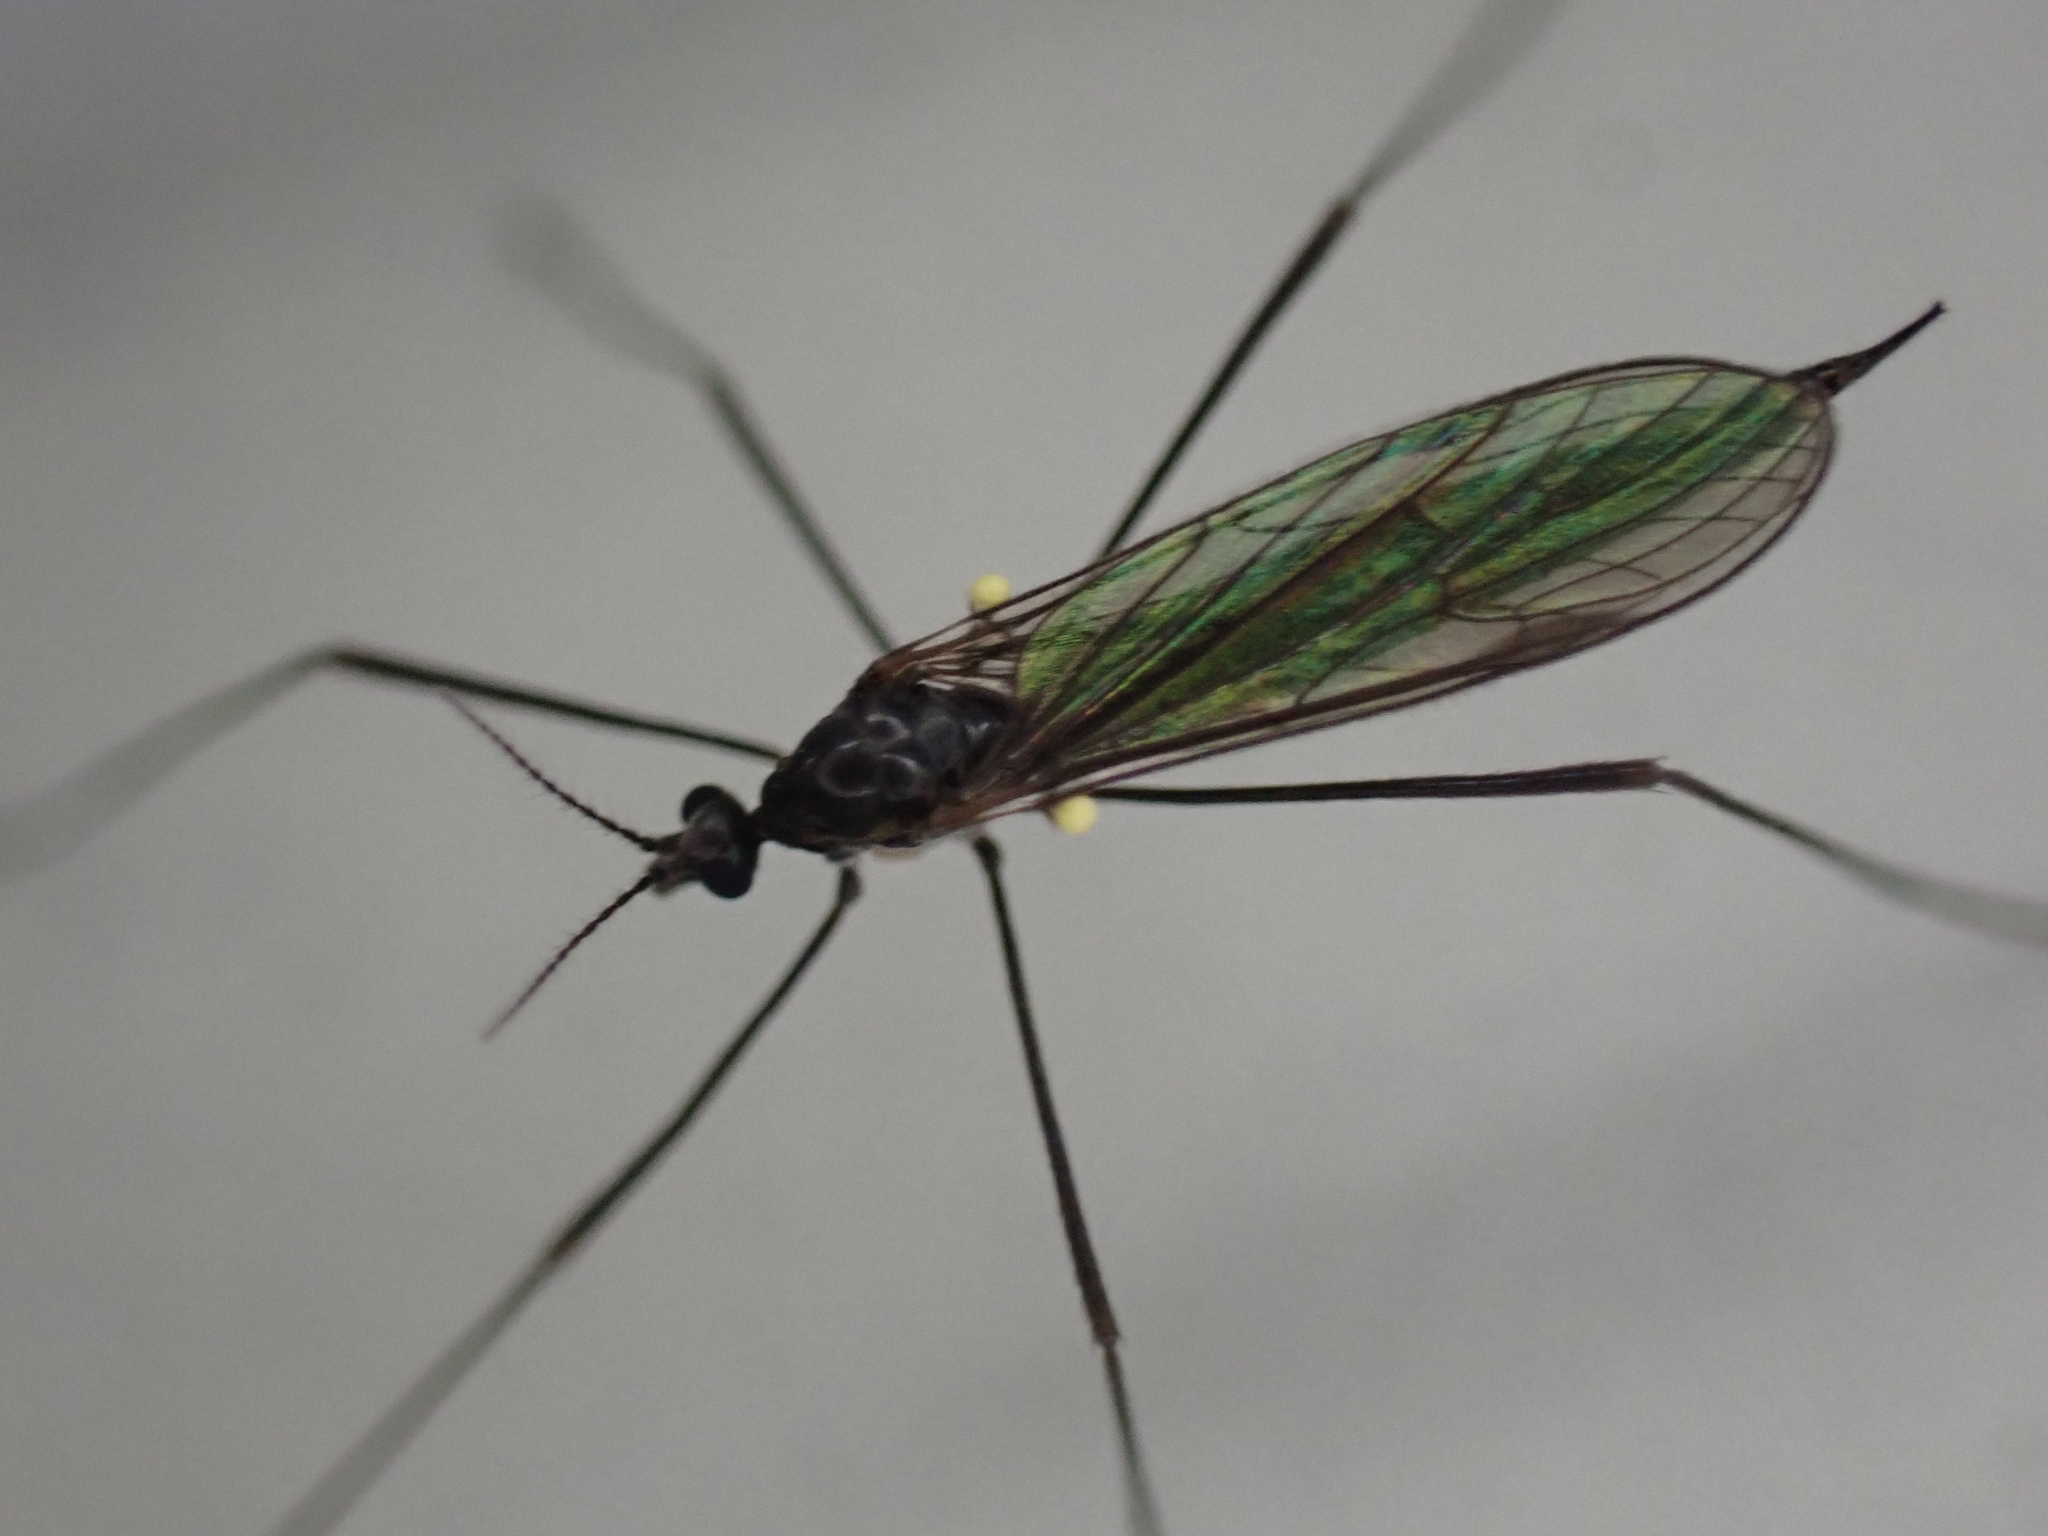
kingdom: Animalia
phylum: Arthropoda
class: Insecta
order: Diptera
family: Limoniidae
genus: Gnophomyia
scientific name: Gnophomyia tristissima
